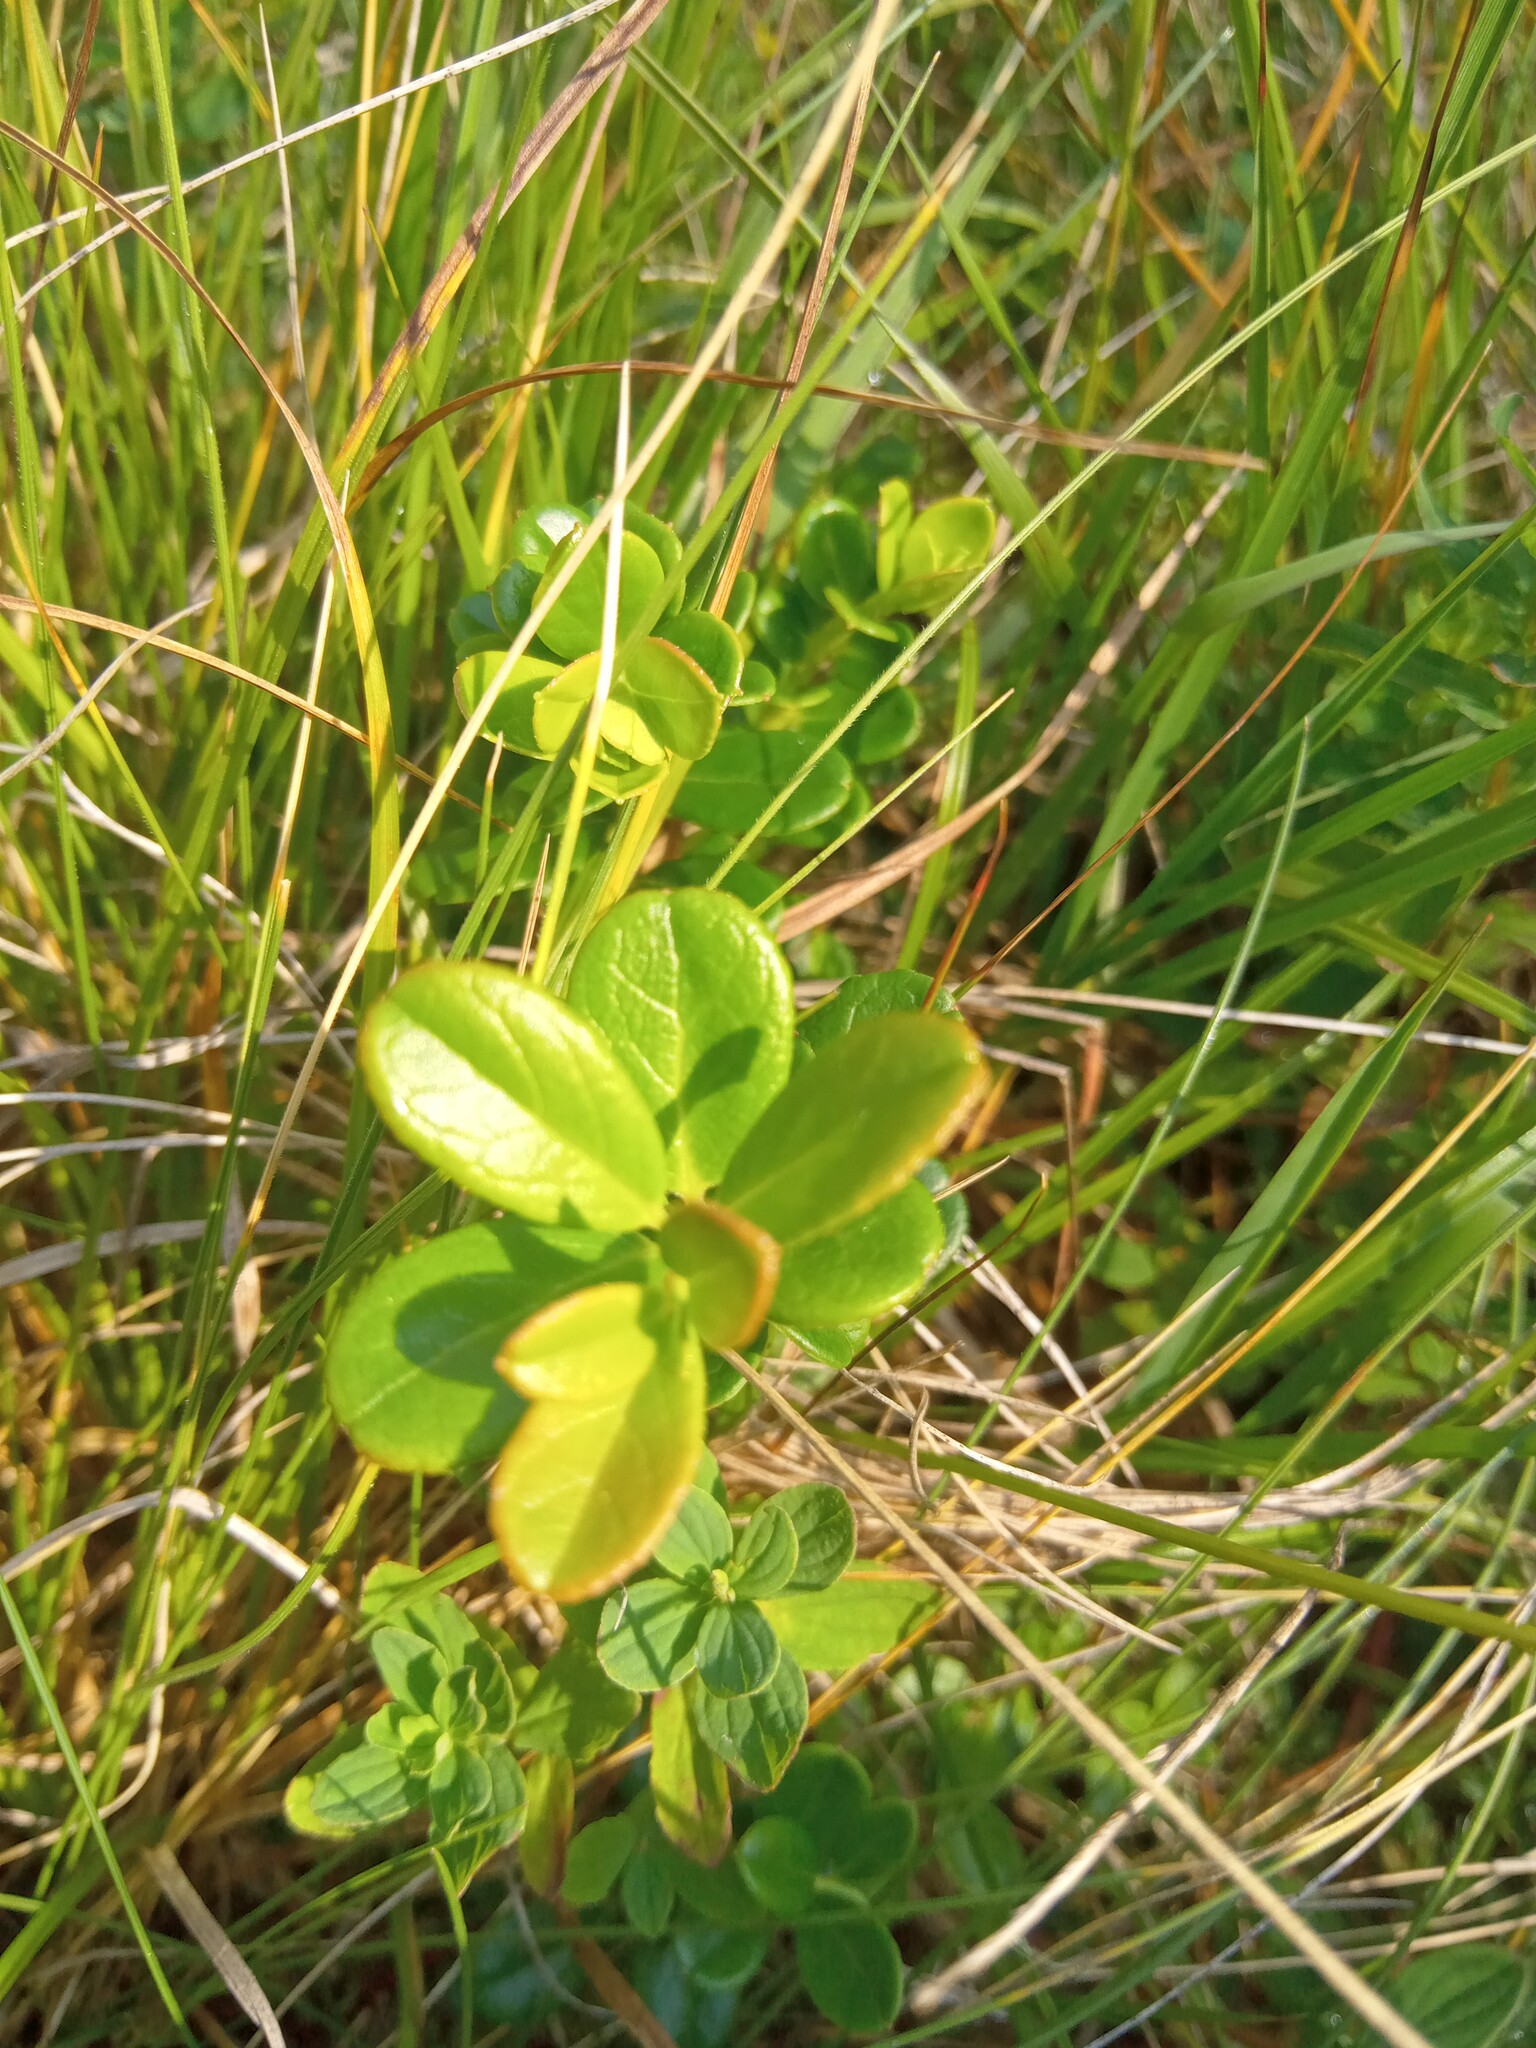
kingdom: Plantae
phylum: Tracheophyta
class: Magnoliopsida
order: Ericales
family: Ericaceae
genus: Vaccinium
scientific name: Vaccinium vitis-idaea
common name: Cowberry
